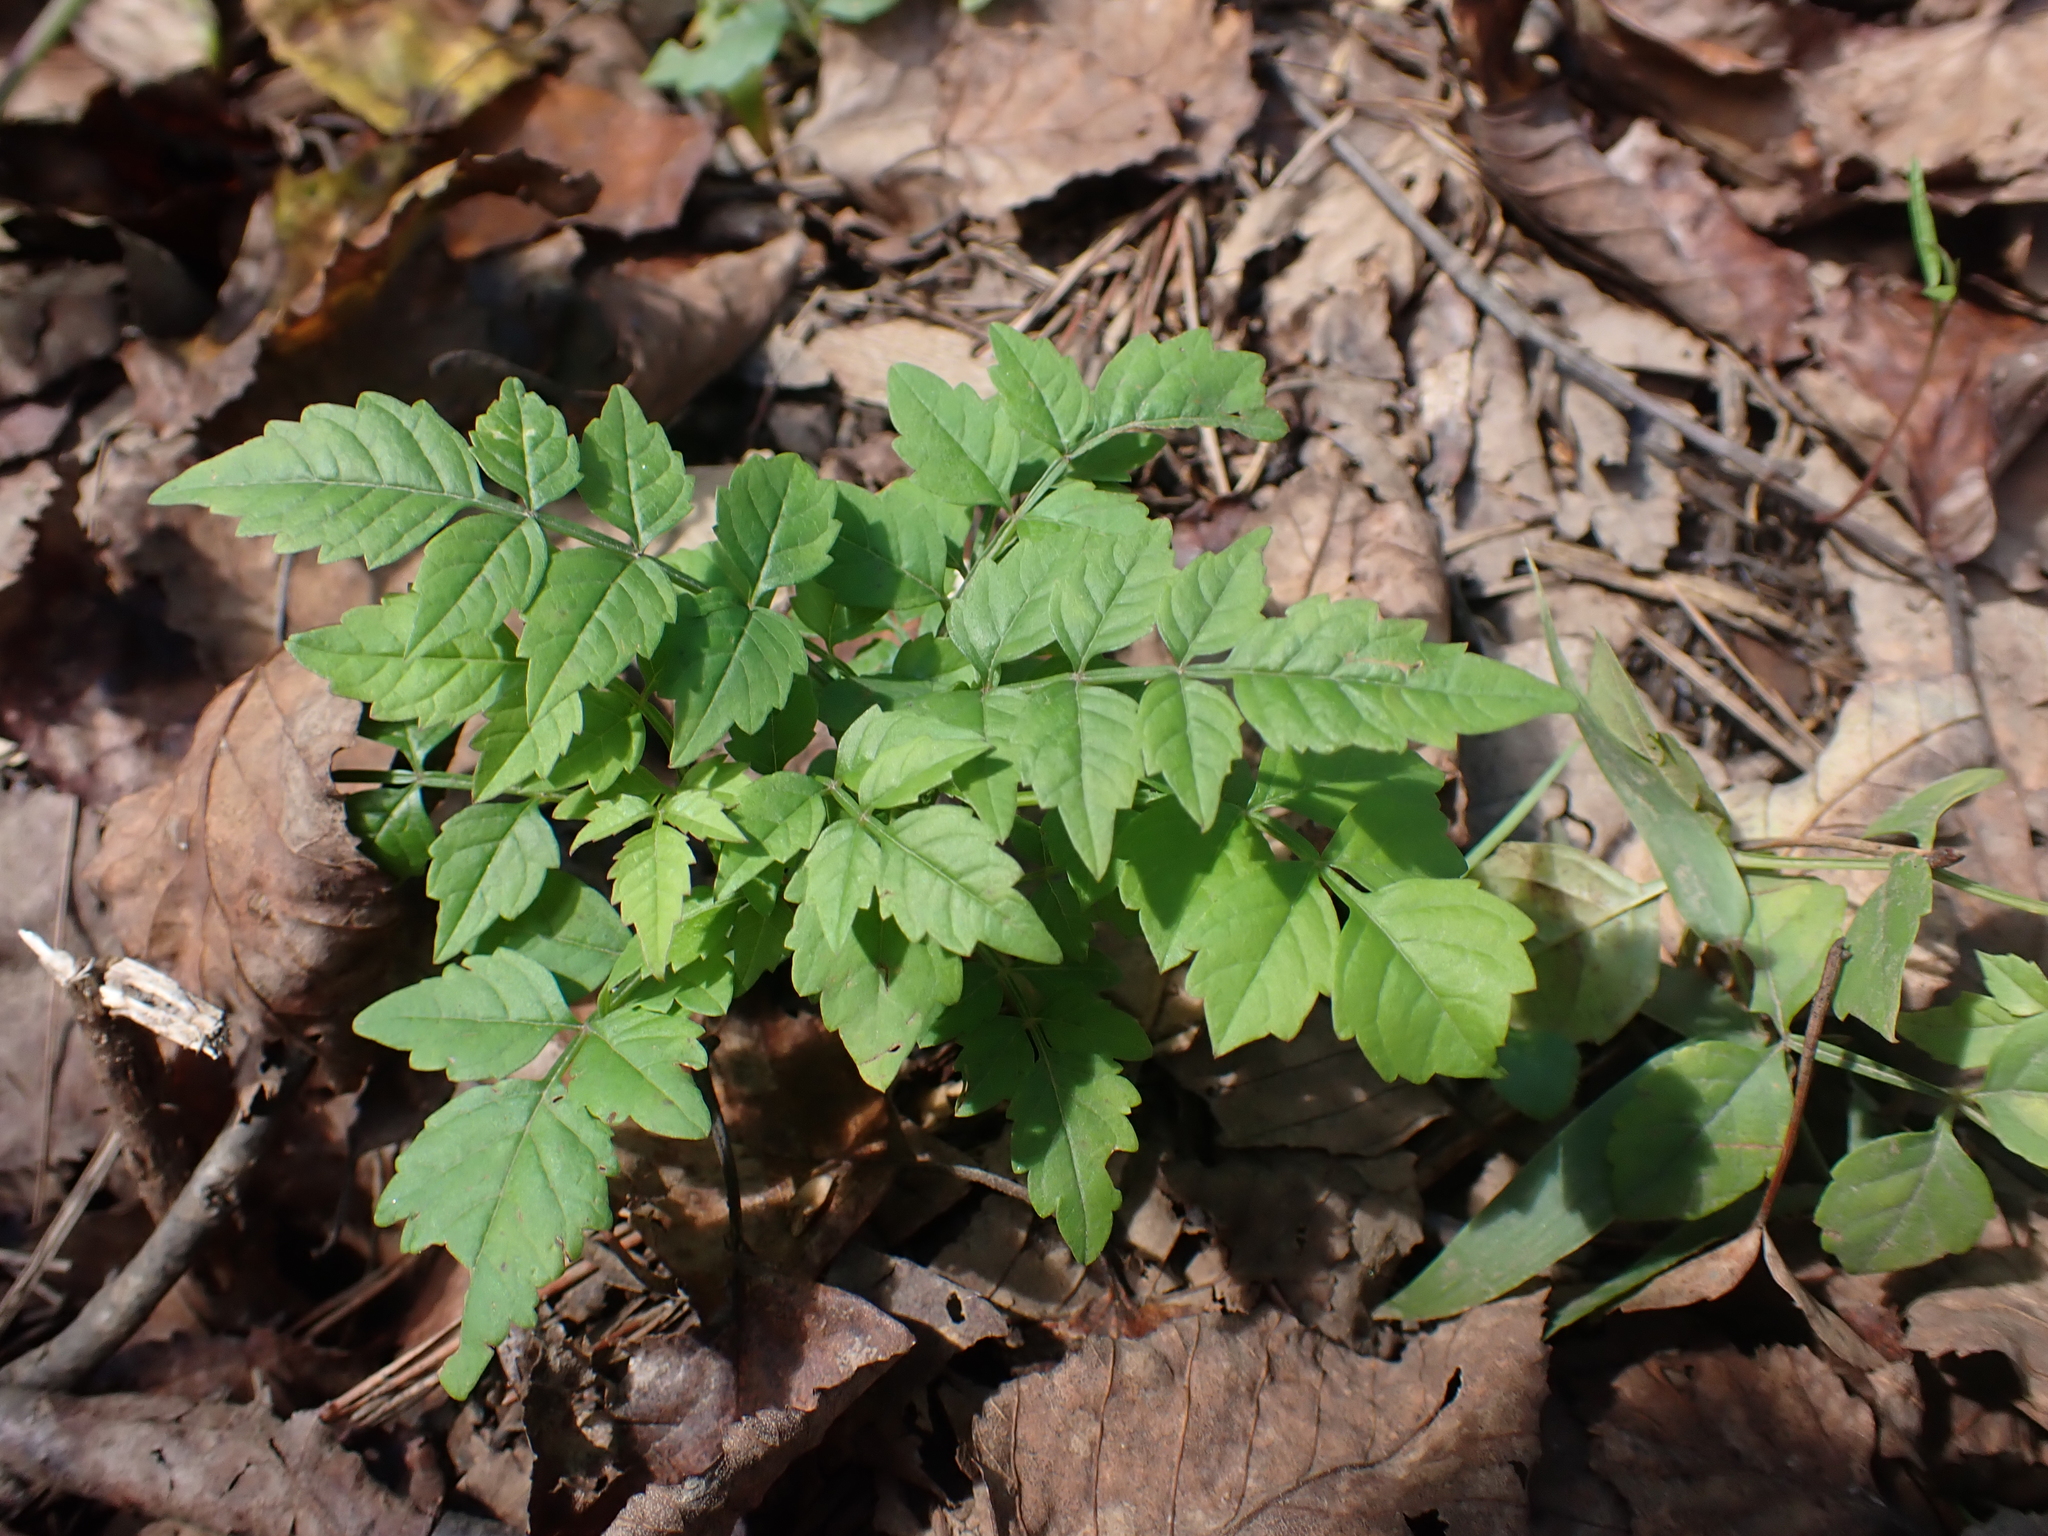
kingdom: Plantae
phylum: Tracheophyta
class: Magnoliopsida
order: Lamiales
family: Bignoniaceae
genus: Campsis
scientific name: Campsis radicans
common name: Trumpet-creeper
